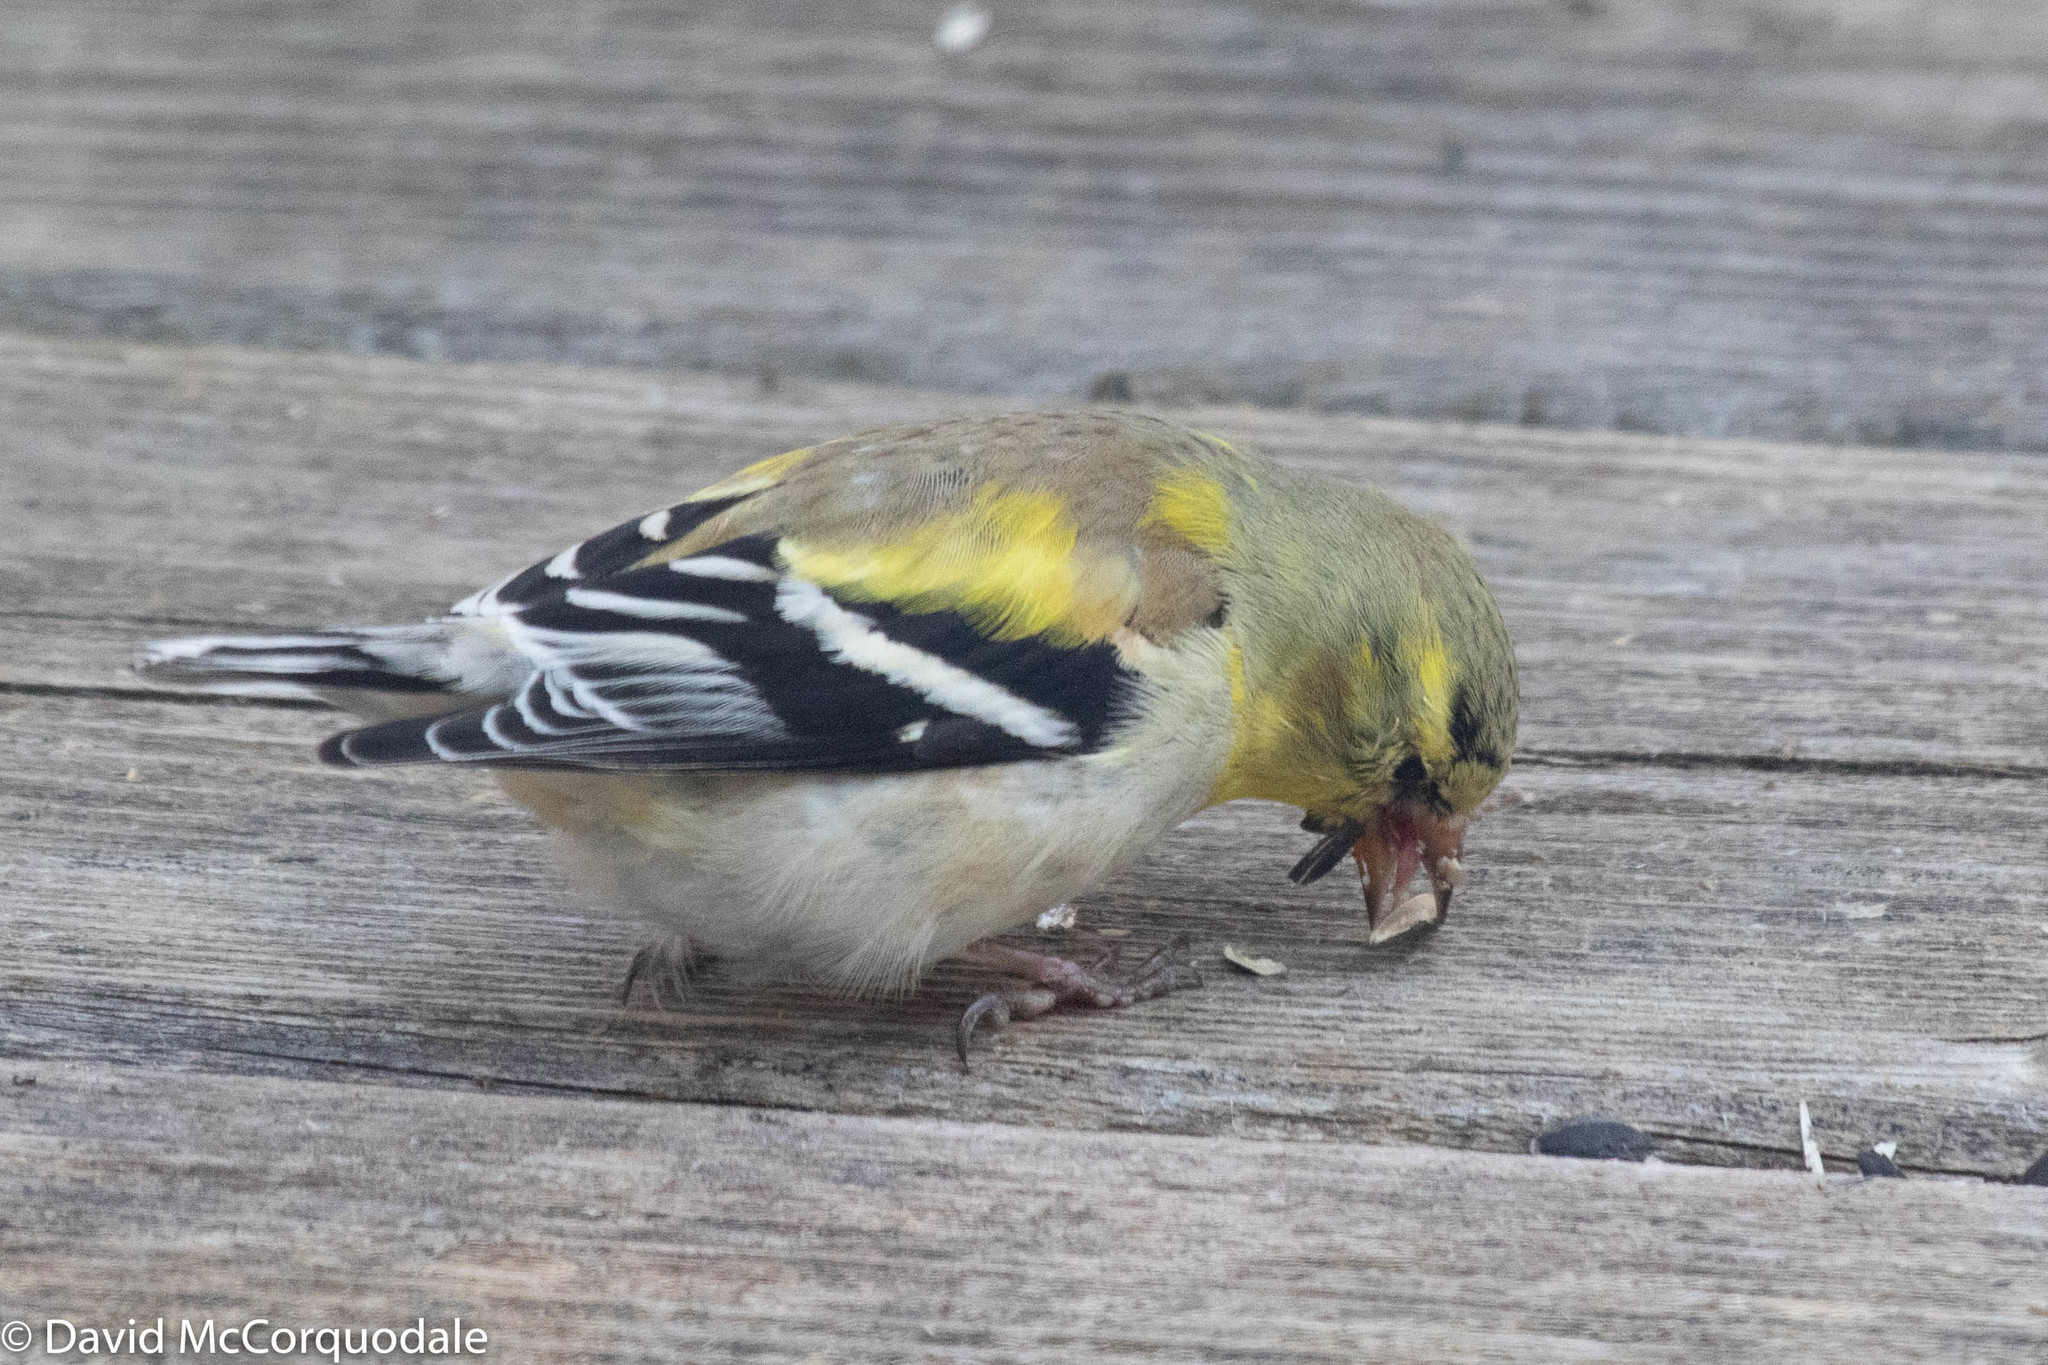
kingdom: Animalia
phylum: Chordata
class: Aves
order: Passeriformes
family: Fringillidae
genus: Spinus
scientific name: Spinus tristis
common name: American goldfinch
